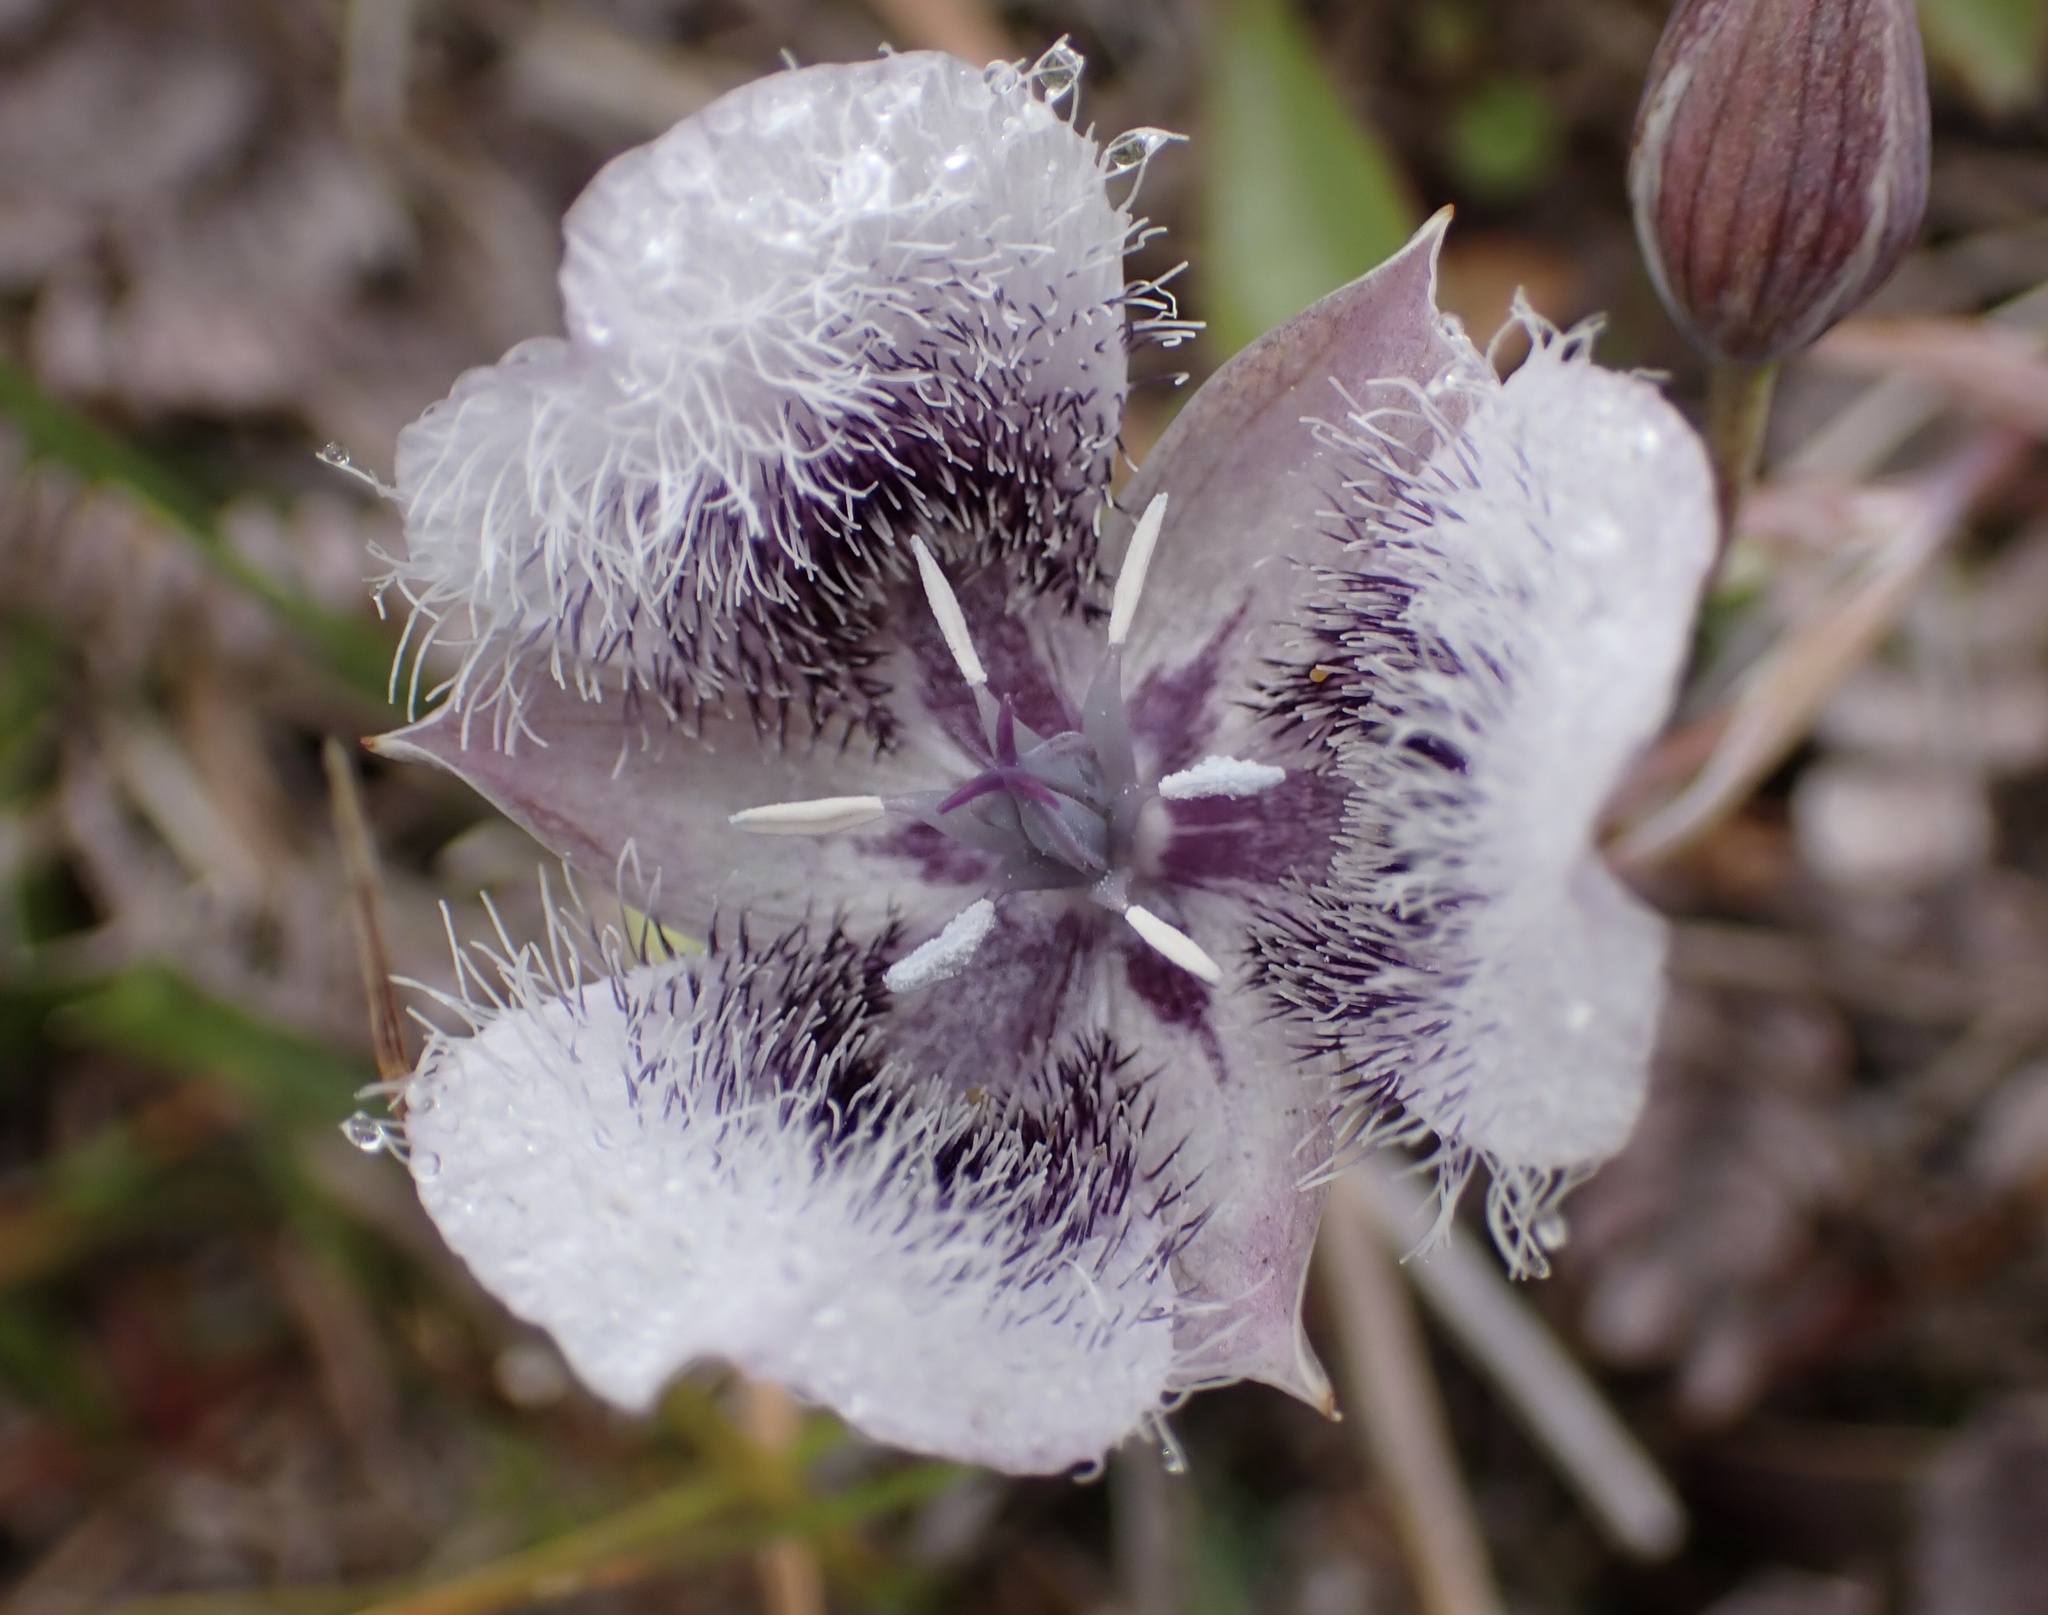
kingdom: Plantae
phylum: Tracheophyta
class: Liliopsida
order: Liliales
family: Liliaceae
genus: Calochortus
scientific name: Calochortus tolmiei
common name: Pussy-ears
